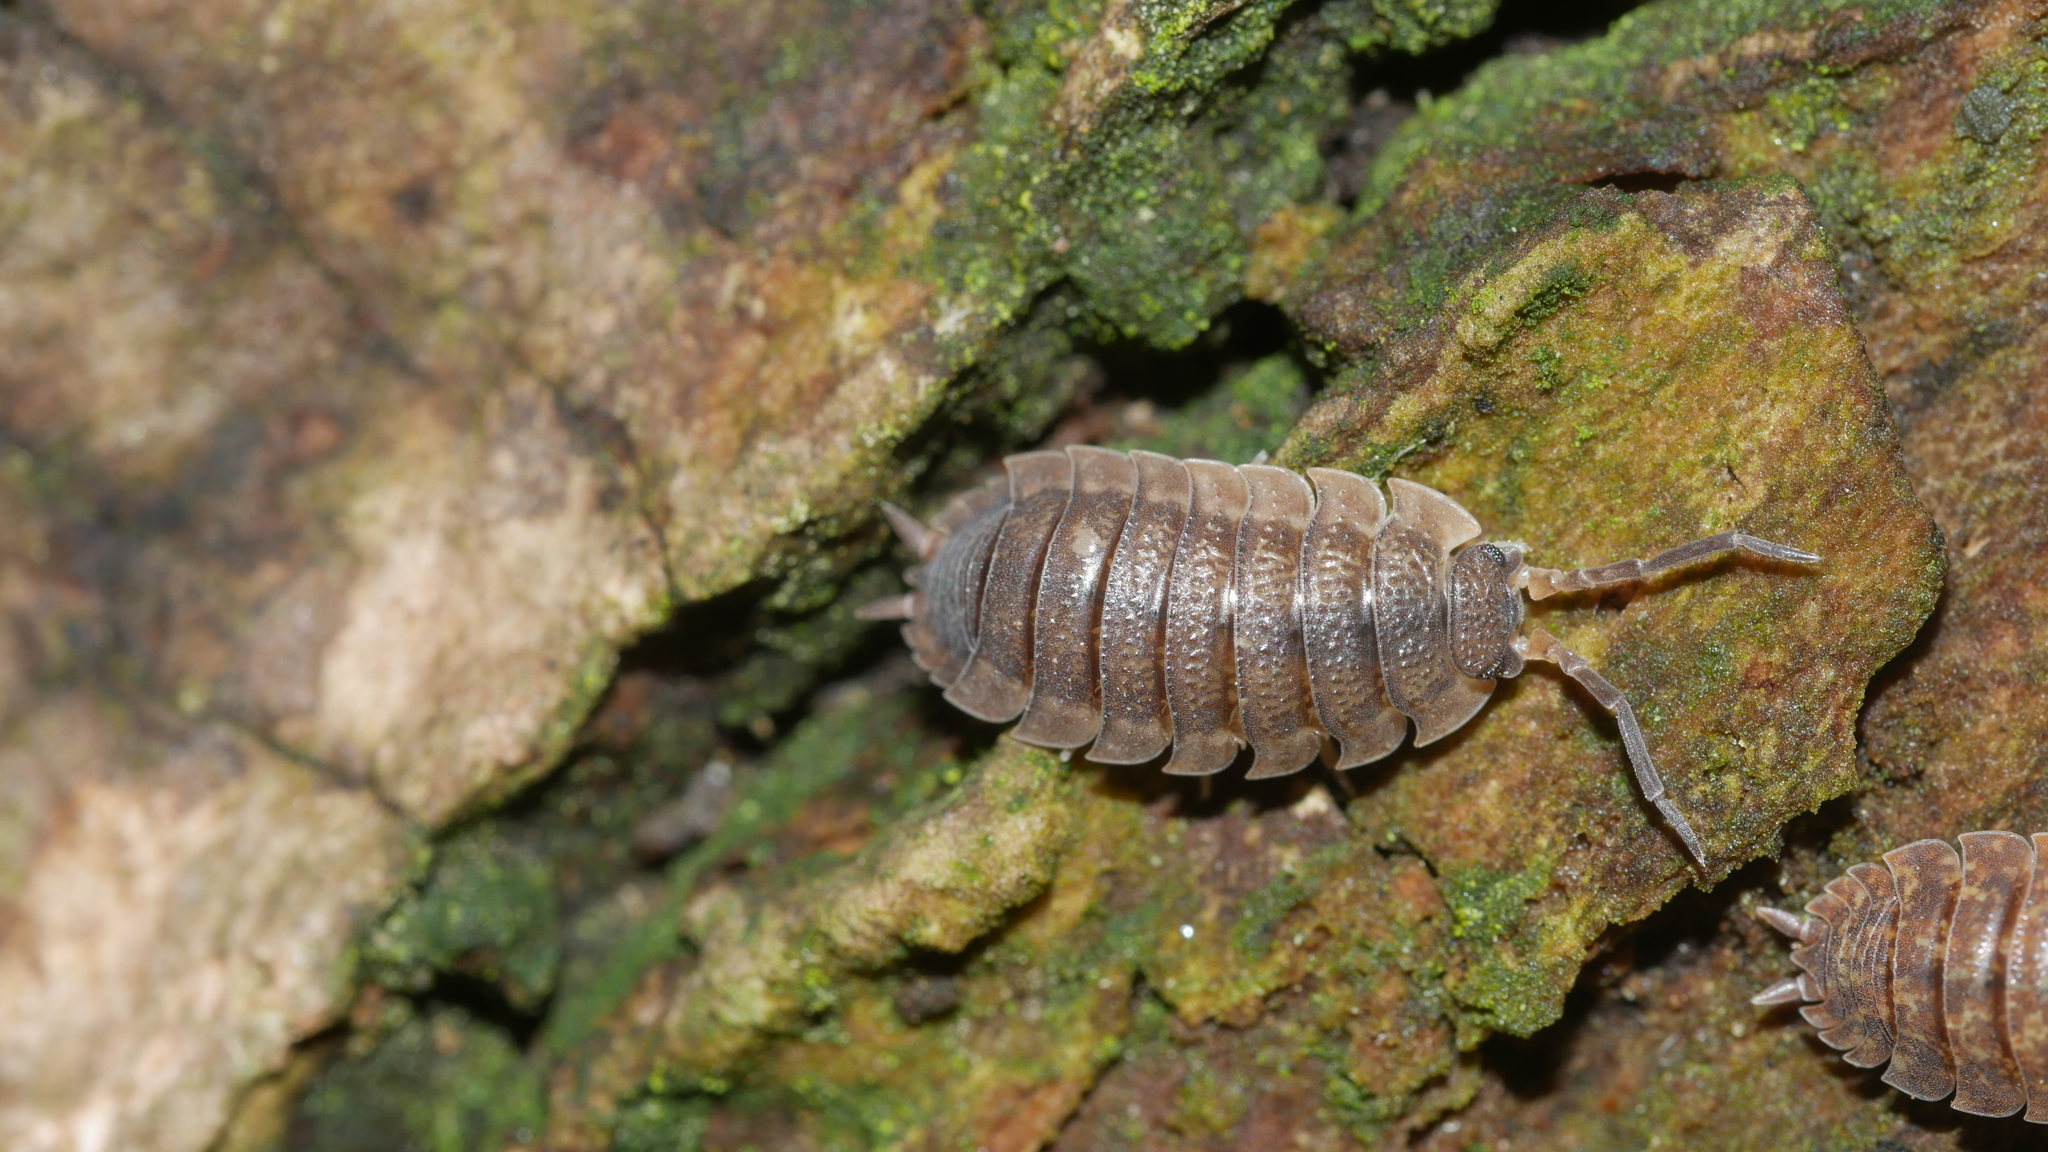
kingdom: Animalia
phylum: Arthropoda
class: Malacostraca
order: Isopoda
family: Porcellionidae
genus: Porcellio
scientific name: Porcellio scaber
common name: Common rough woodlouse
